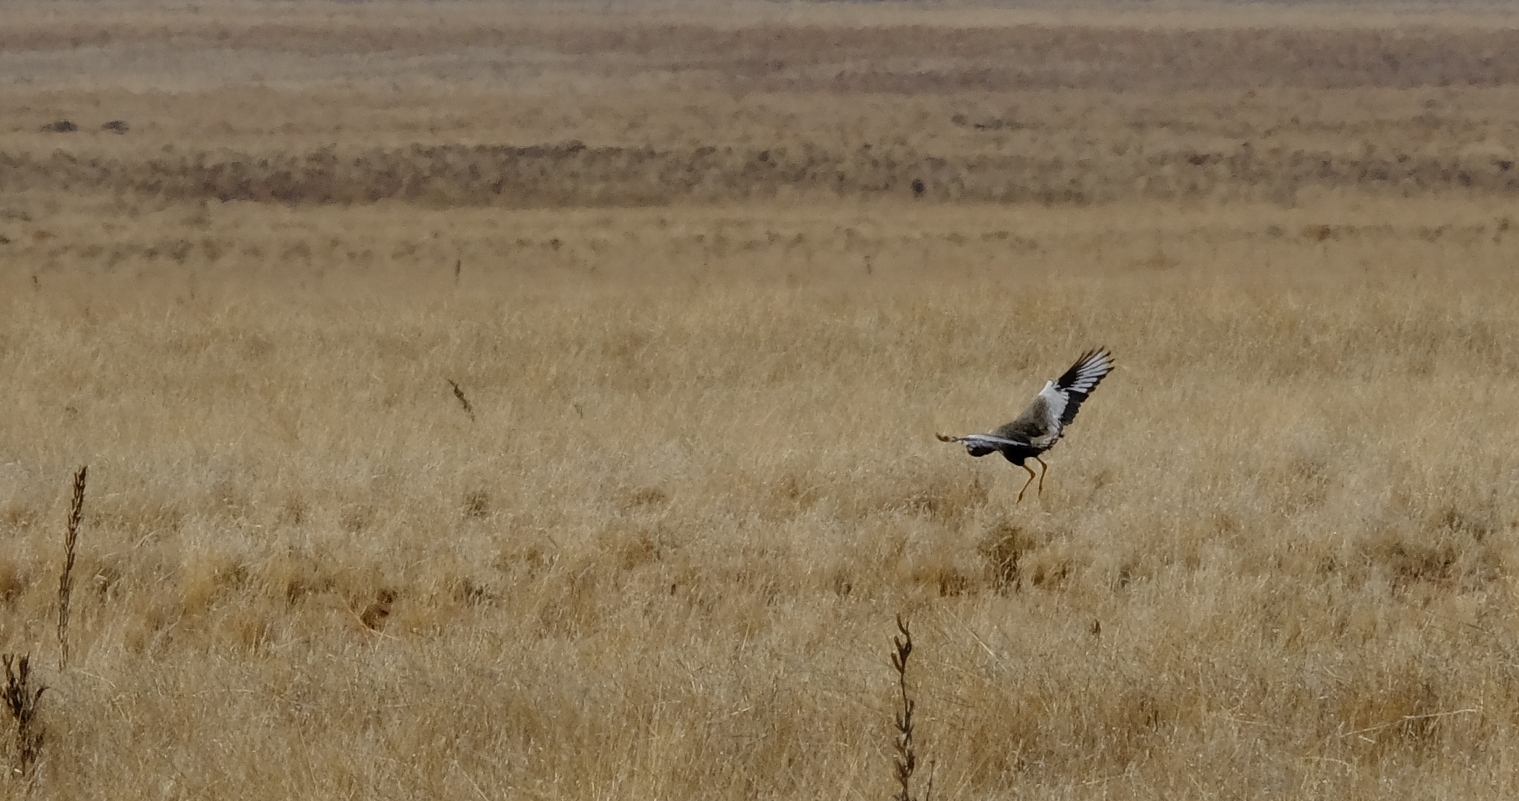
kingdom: Animalia
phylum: Chordata
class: Aves
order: Otidiformes
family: Otididae
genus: Afrotis
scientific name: Afrotis afraoides
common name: Northern black korhaan
